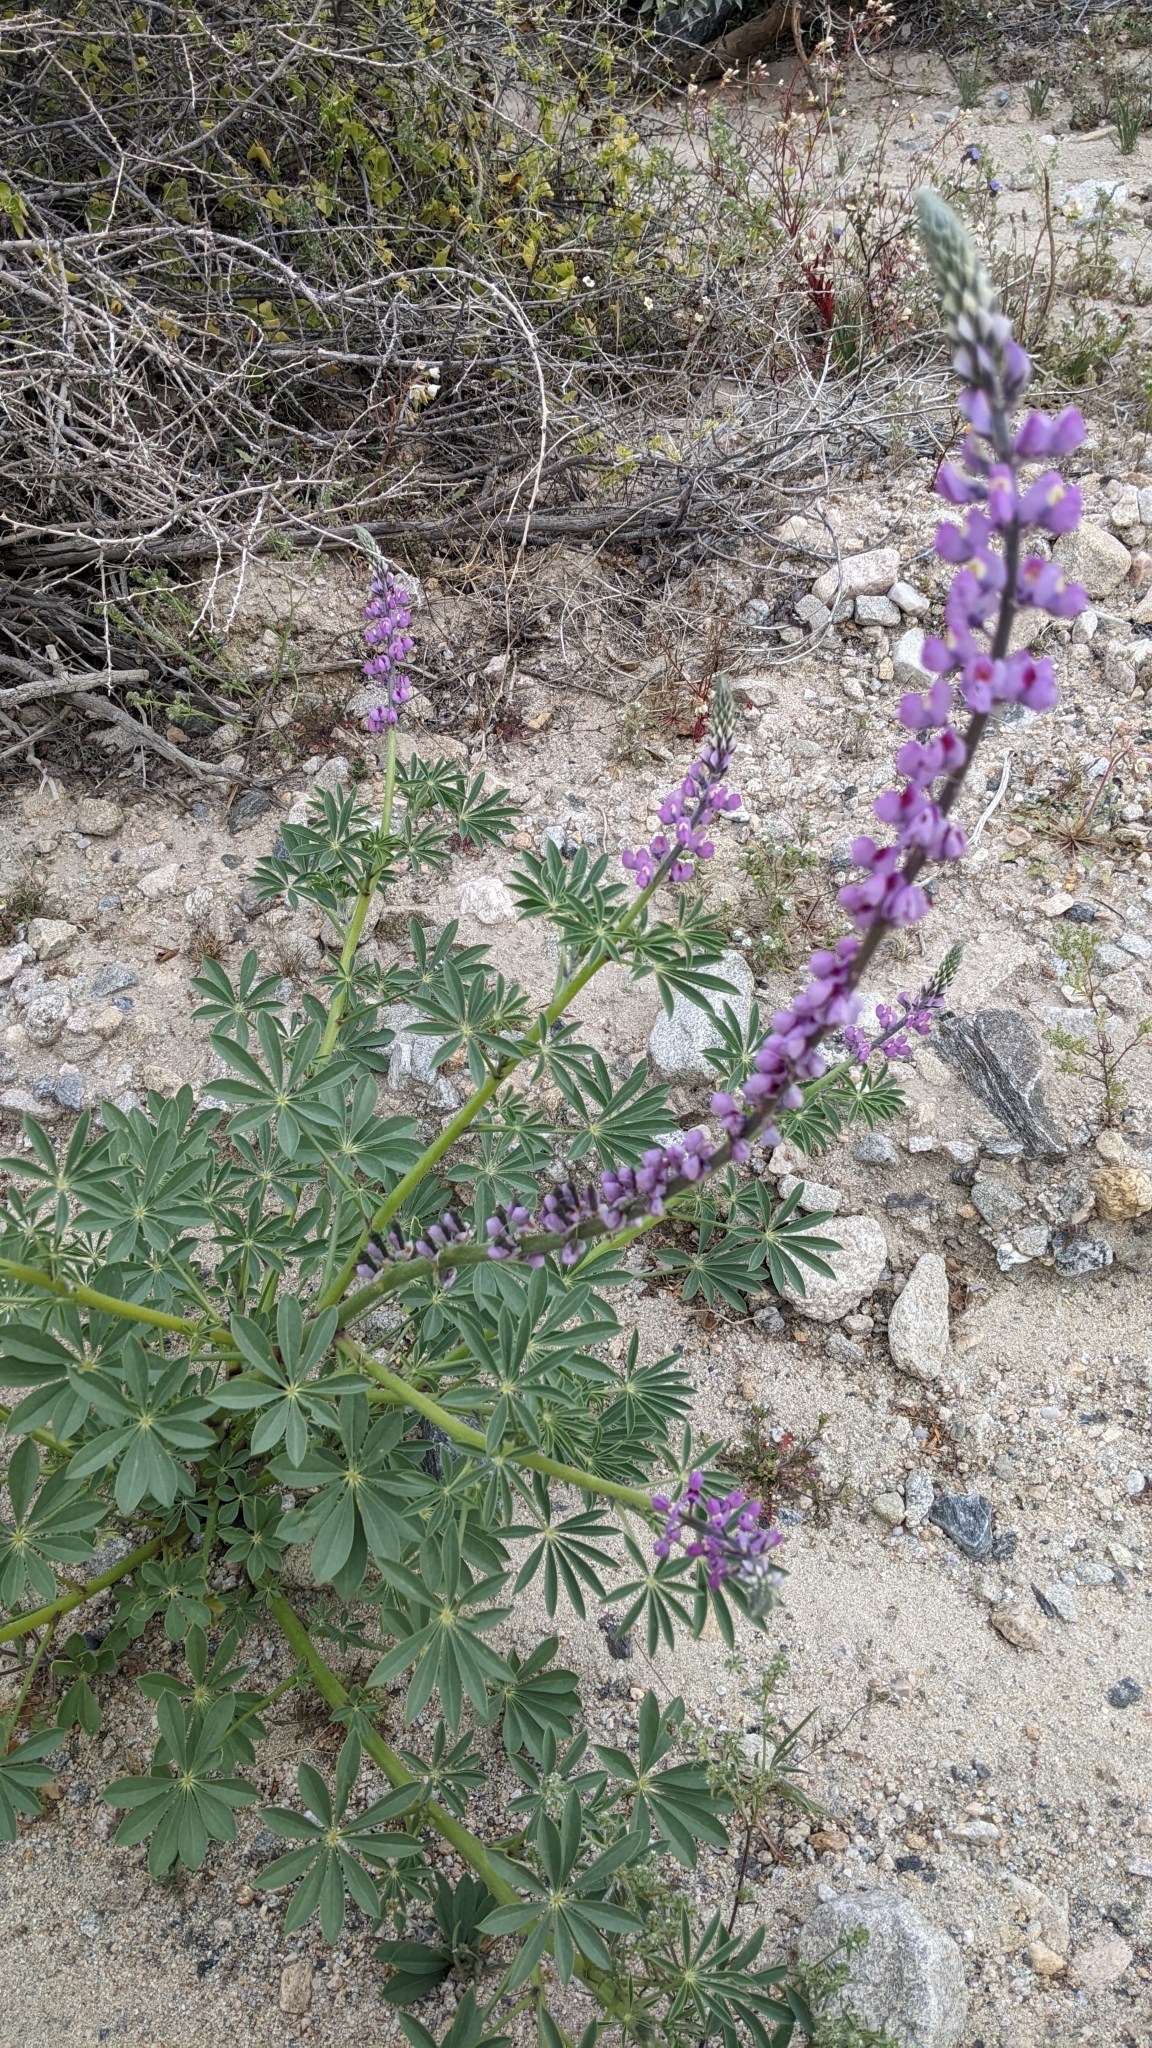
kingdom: Plantae
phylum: Tracheophyta
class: Magnoliopsida
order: Fabales
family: Fabaceae
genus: Lupinus
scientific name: Lupinus arizonicus
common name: Arizona lupine
